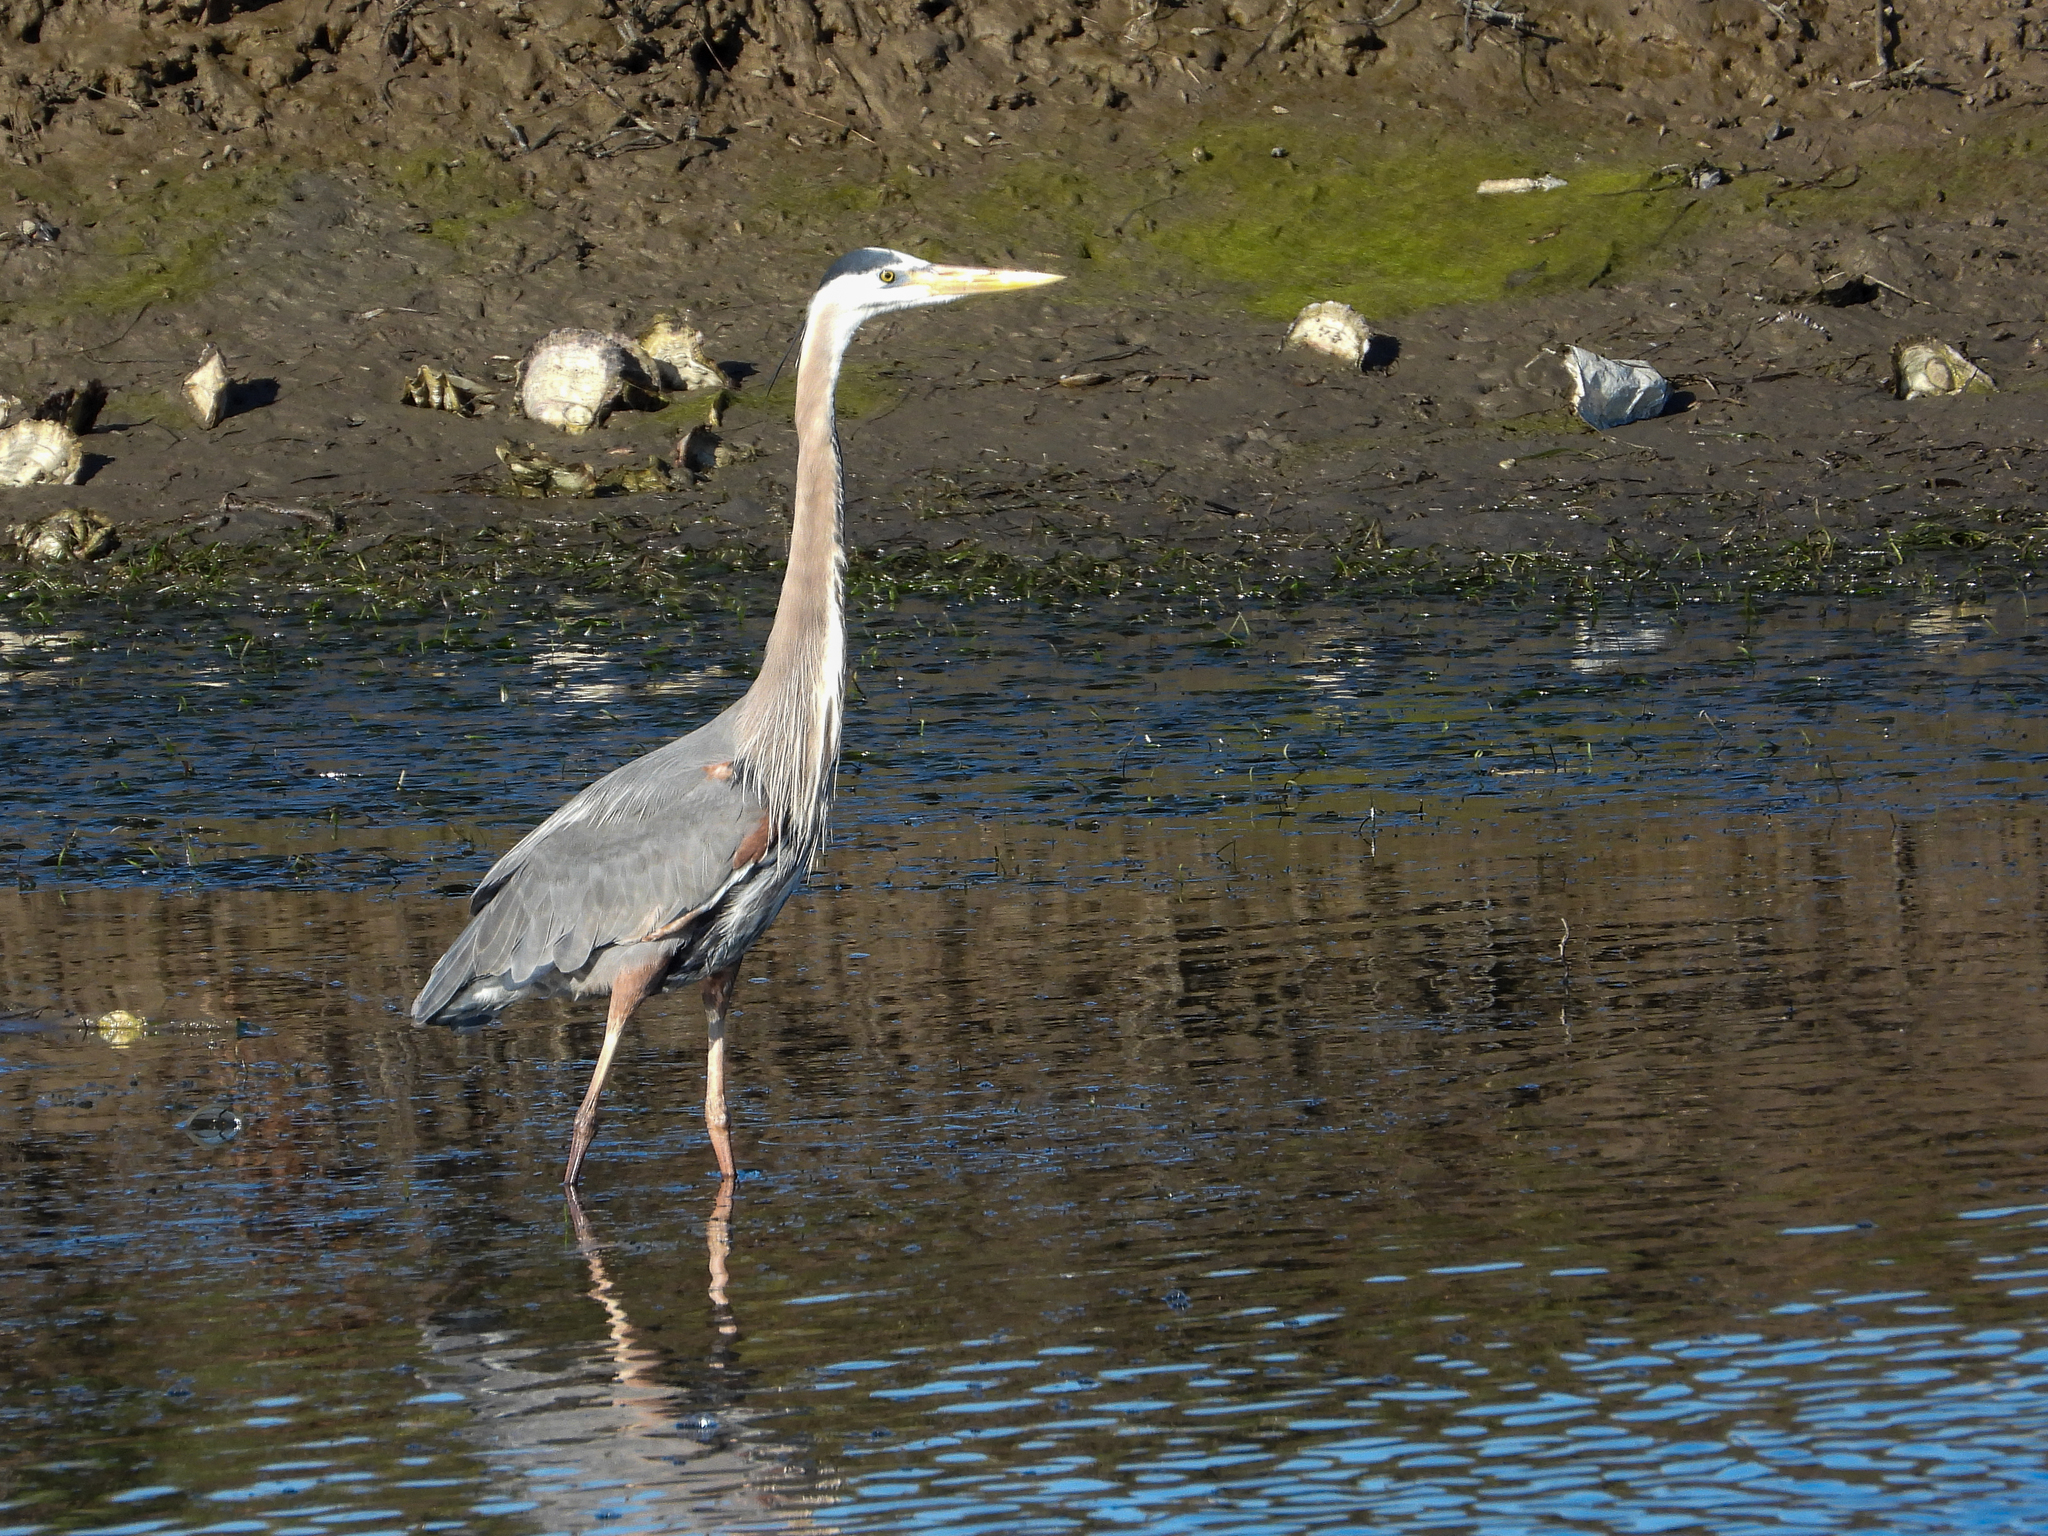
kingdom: Animalia
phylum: Chordata
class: Aves
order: Pelecaniformes
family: Ardeidae
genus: Ardea
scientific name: Ardea herodias
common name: Great blue heron
